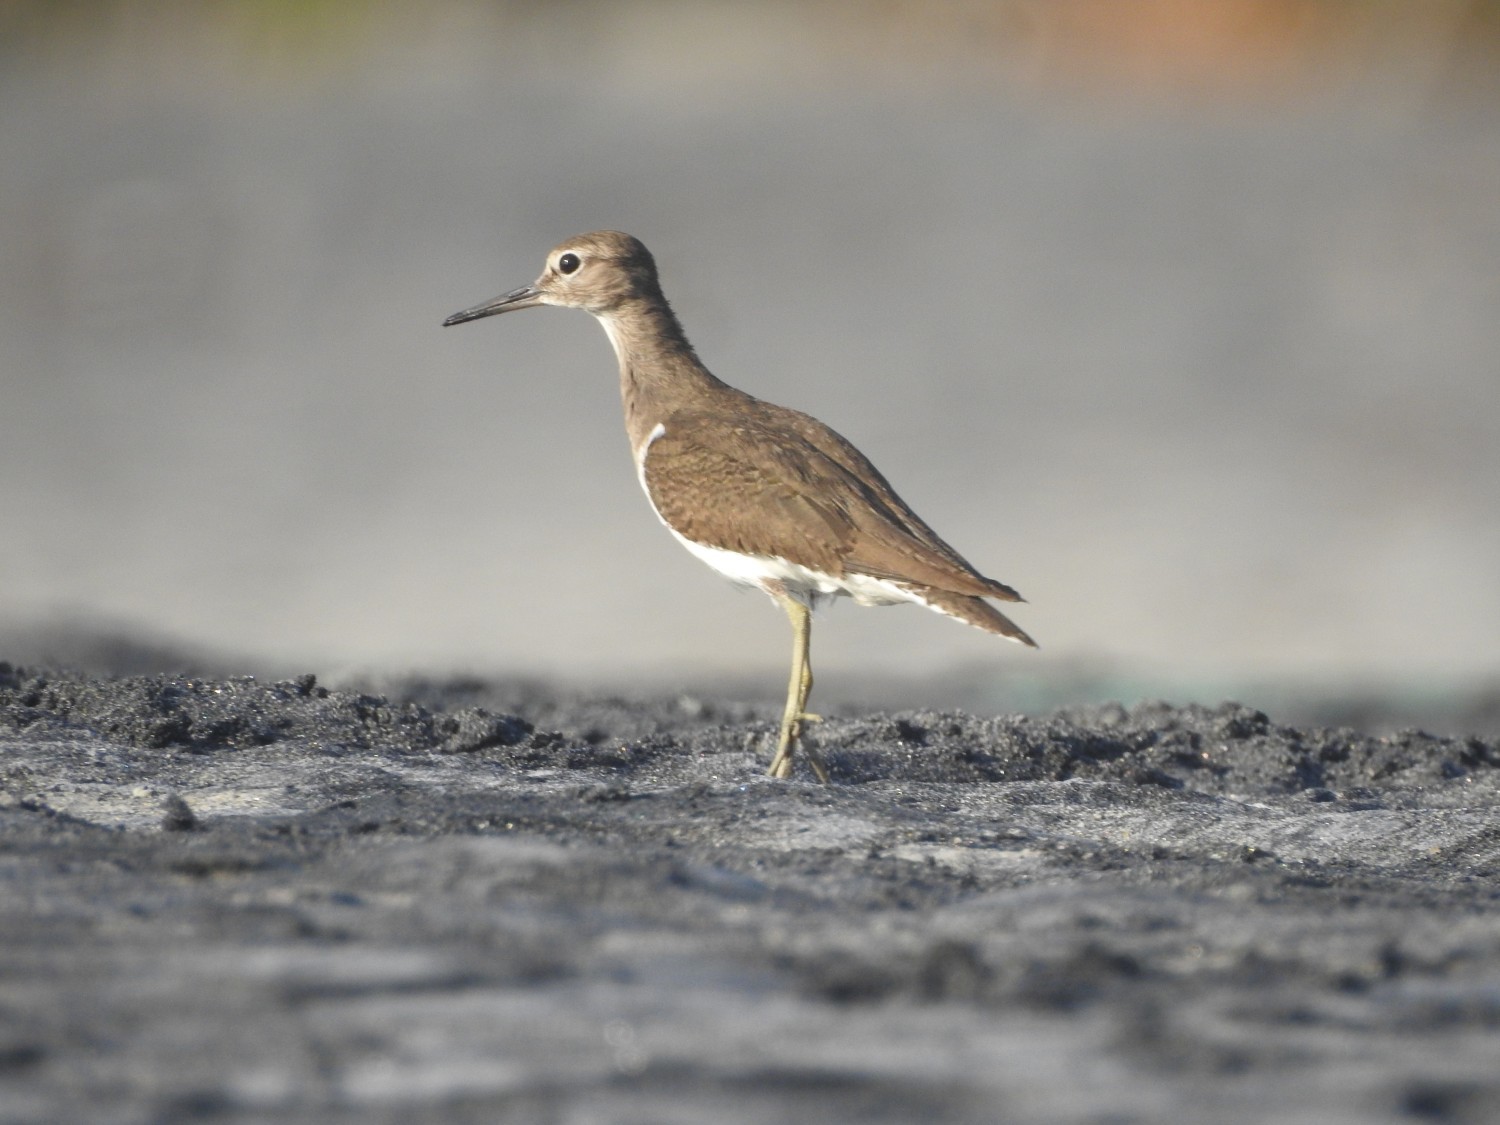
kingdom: Animalia
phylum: Chordata
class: Aves
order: Charadriiformes
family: Scolopacidae
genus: Actitis
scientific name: Actitis hypoleucos
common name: Common sandpiper
